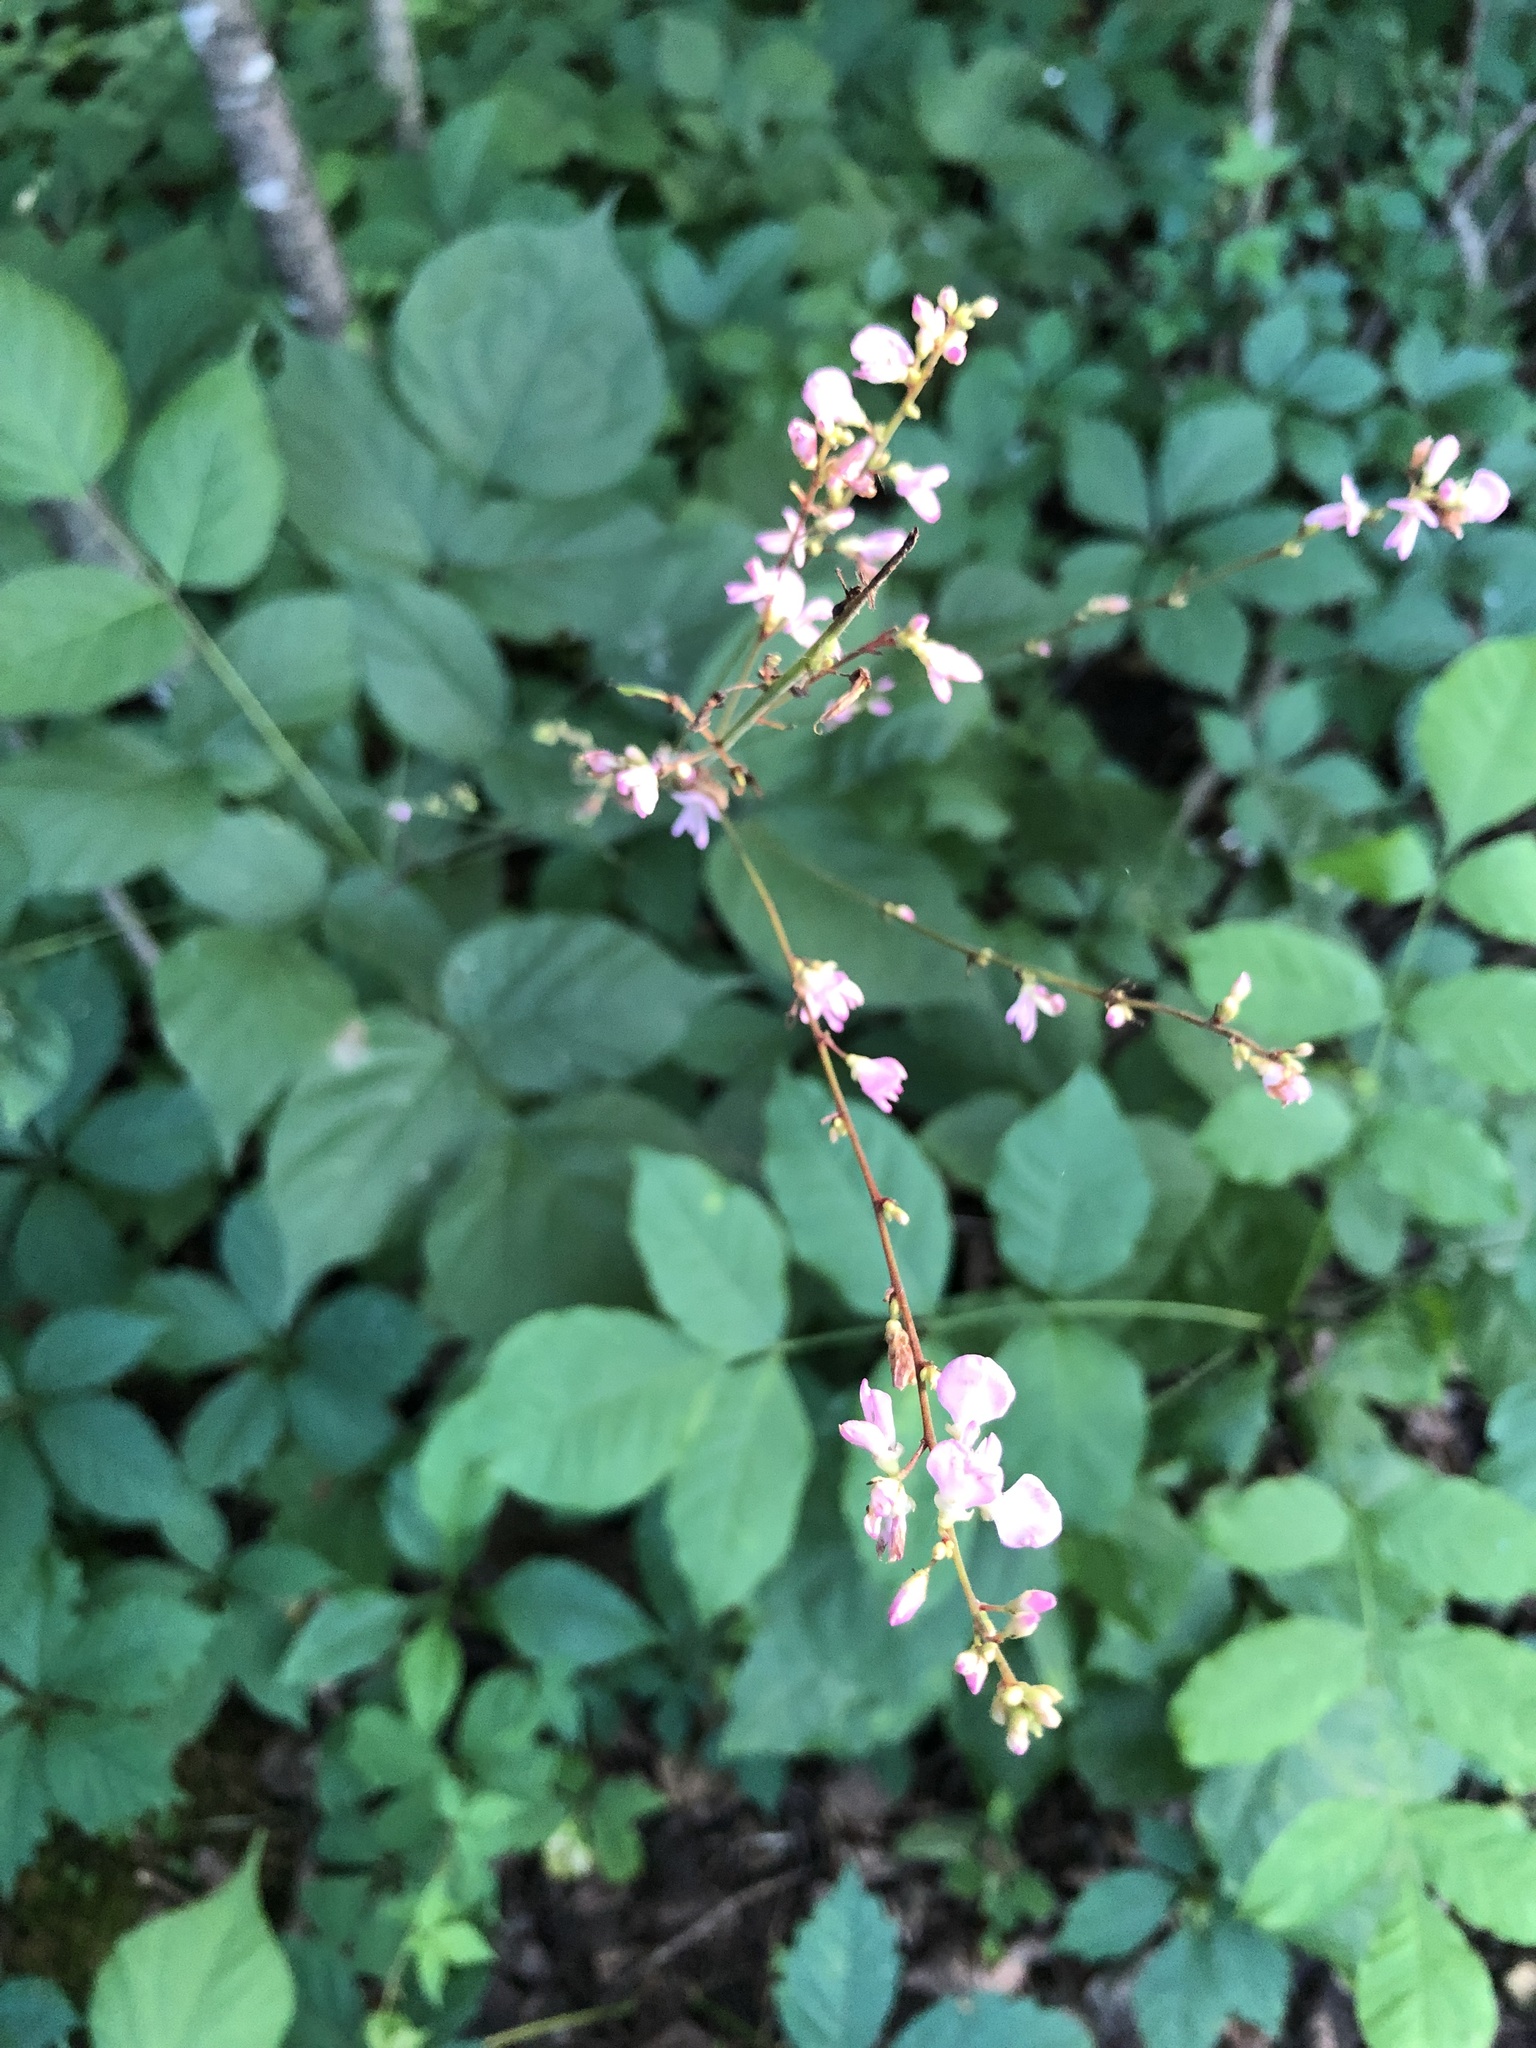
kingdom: Plantae
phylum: Tracheophyta
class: Magnoliopsida
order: Fabales
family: Fabaceae
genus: Hylodesmum
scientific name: Hylodesmum glutinosum
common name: Clustered-leaved tick-trefoil
